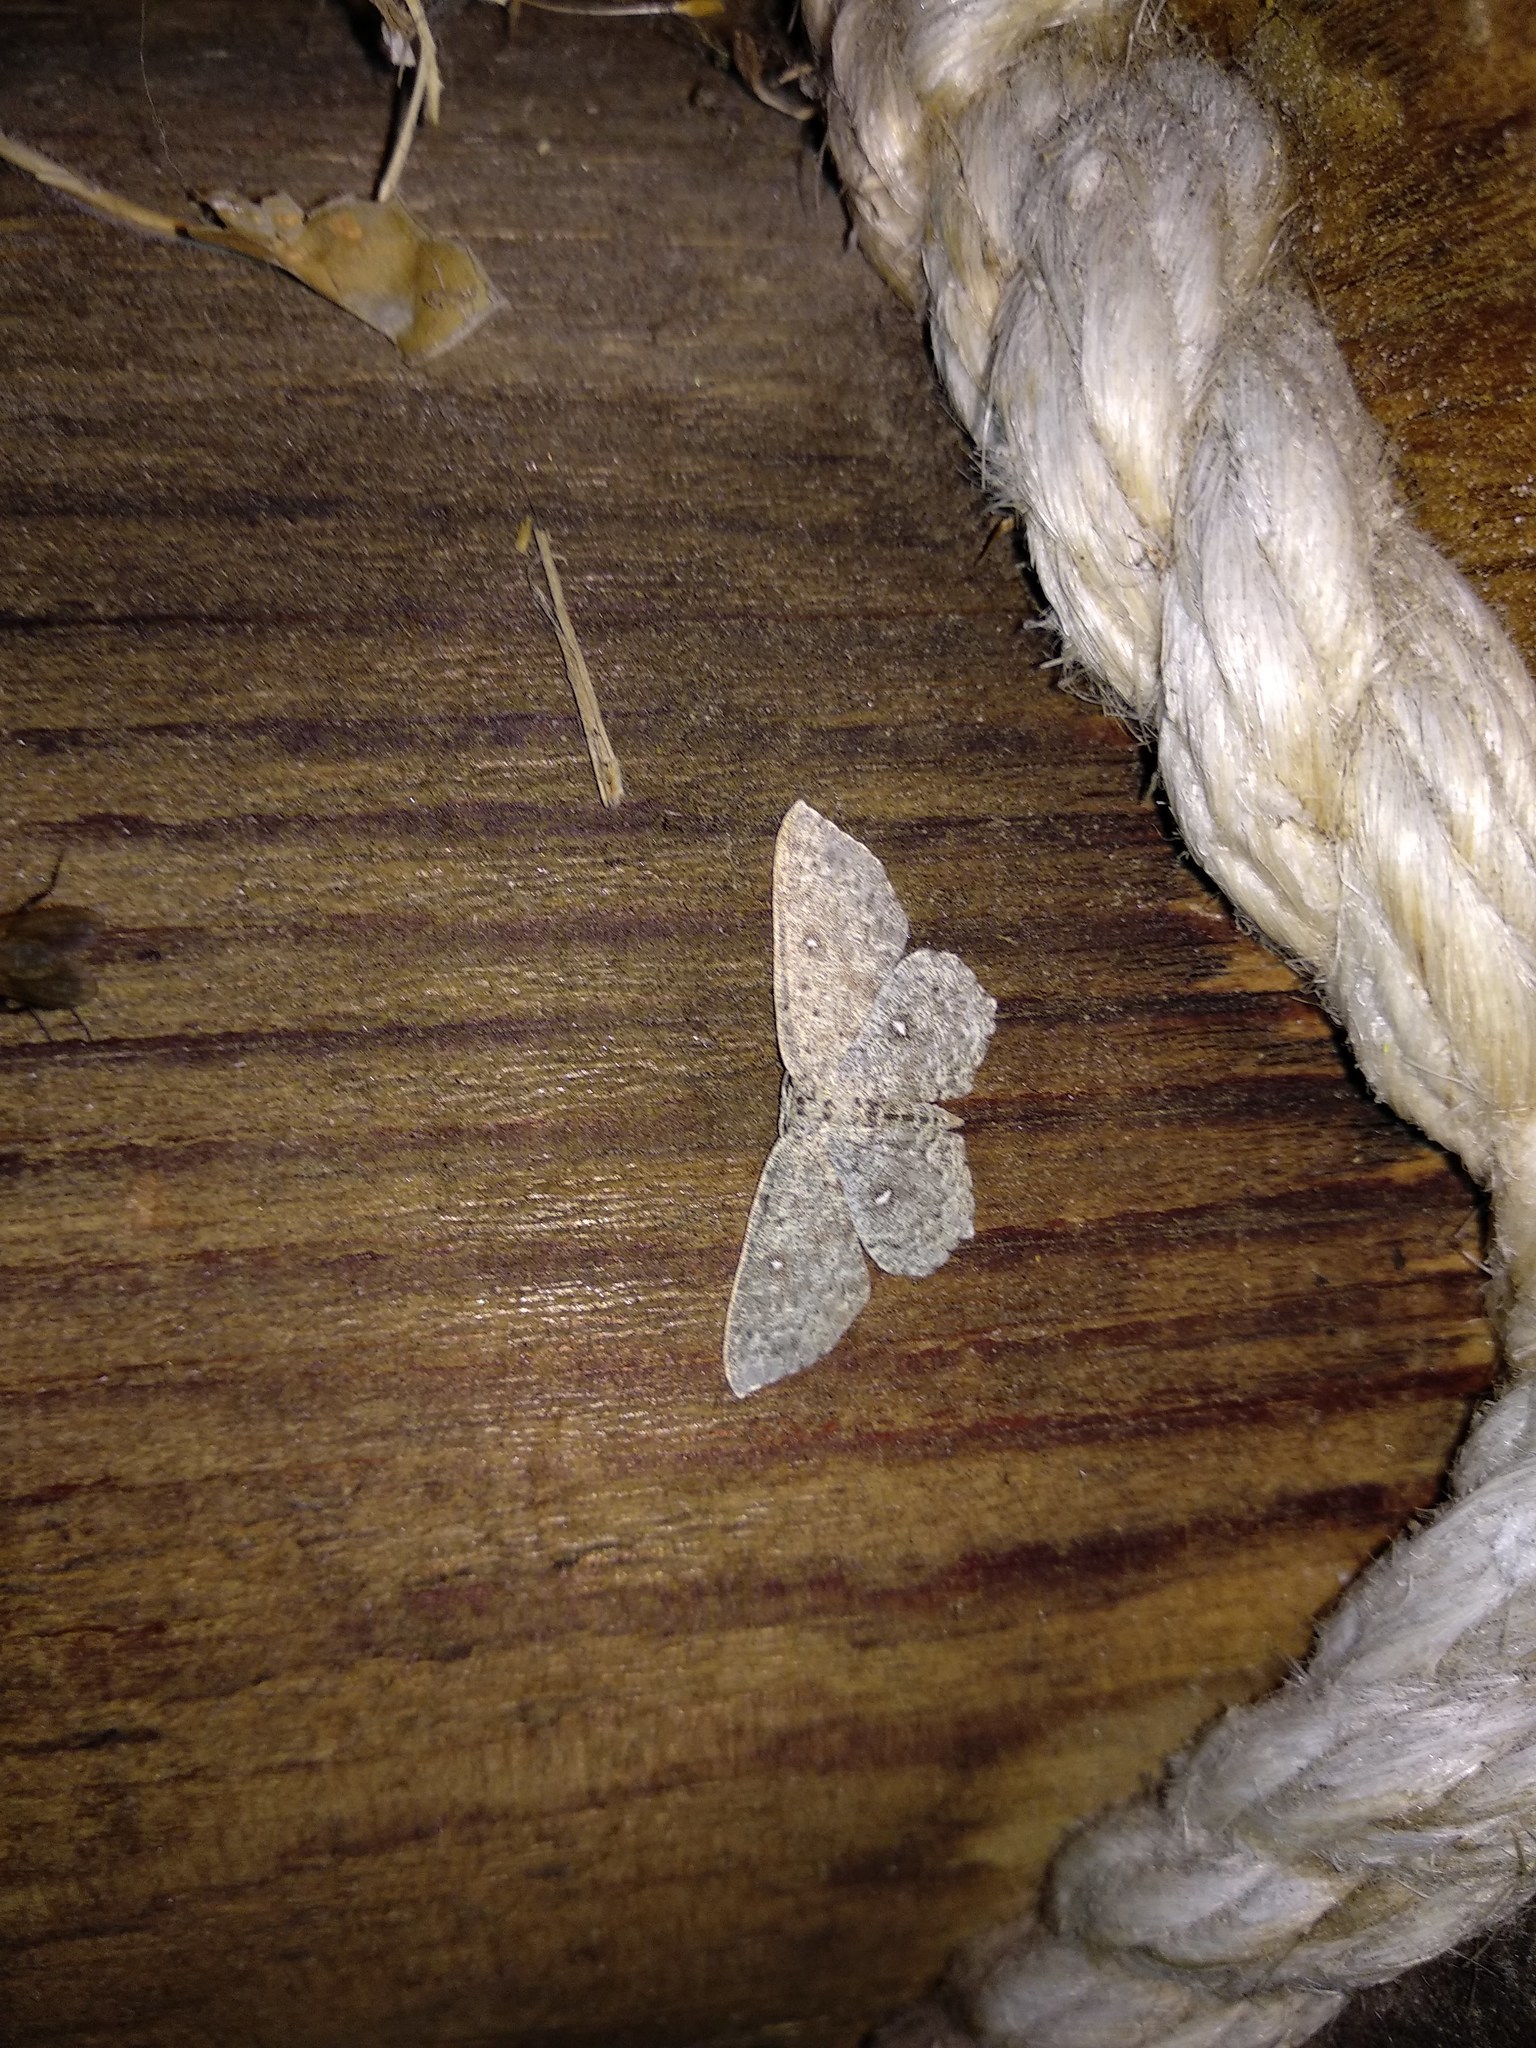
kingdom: Animalia
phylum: Arthropoda
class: Insecta
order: Lepidoptera
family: Geometridae
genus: Cyclophora
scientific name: Cyclophora pendularia
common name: Dingy mocha
